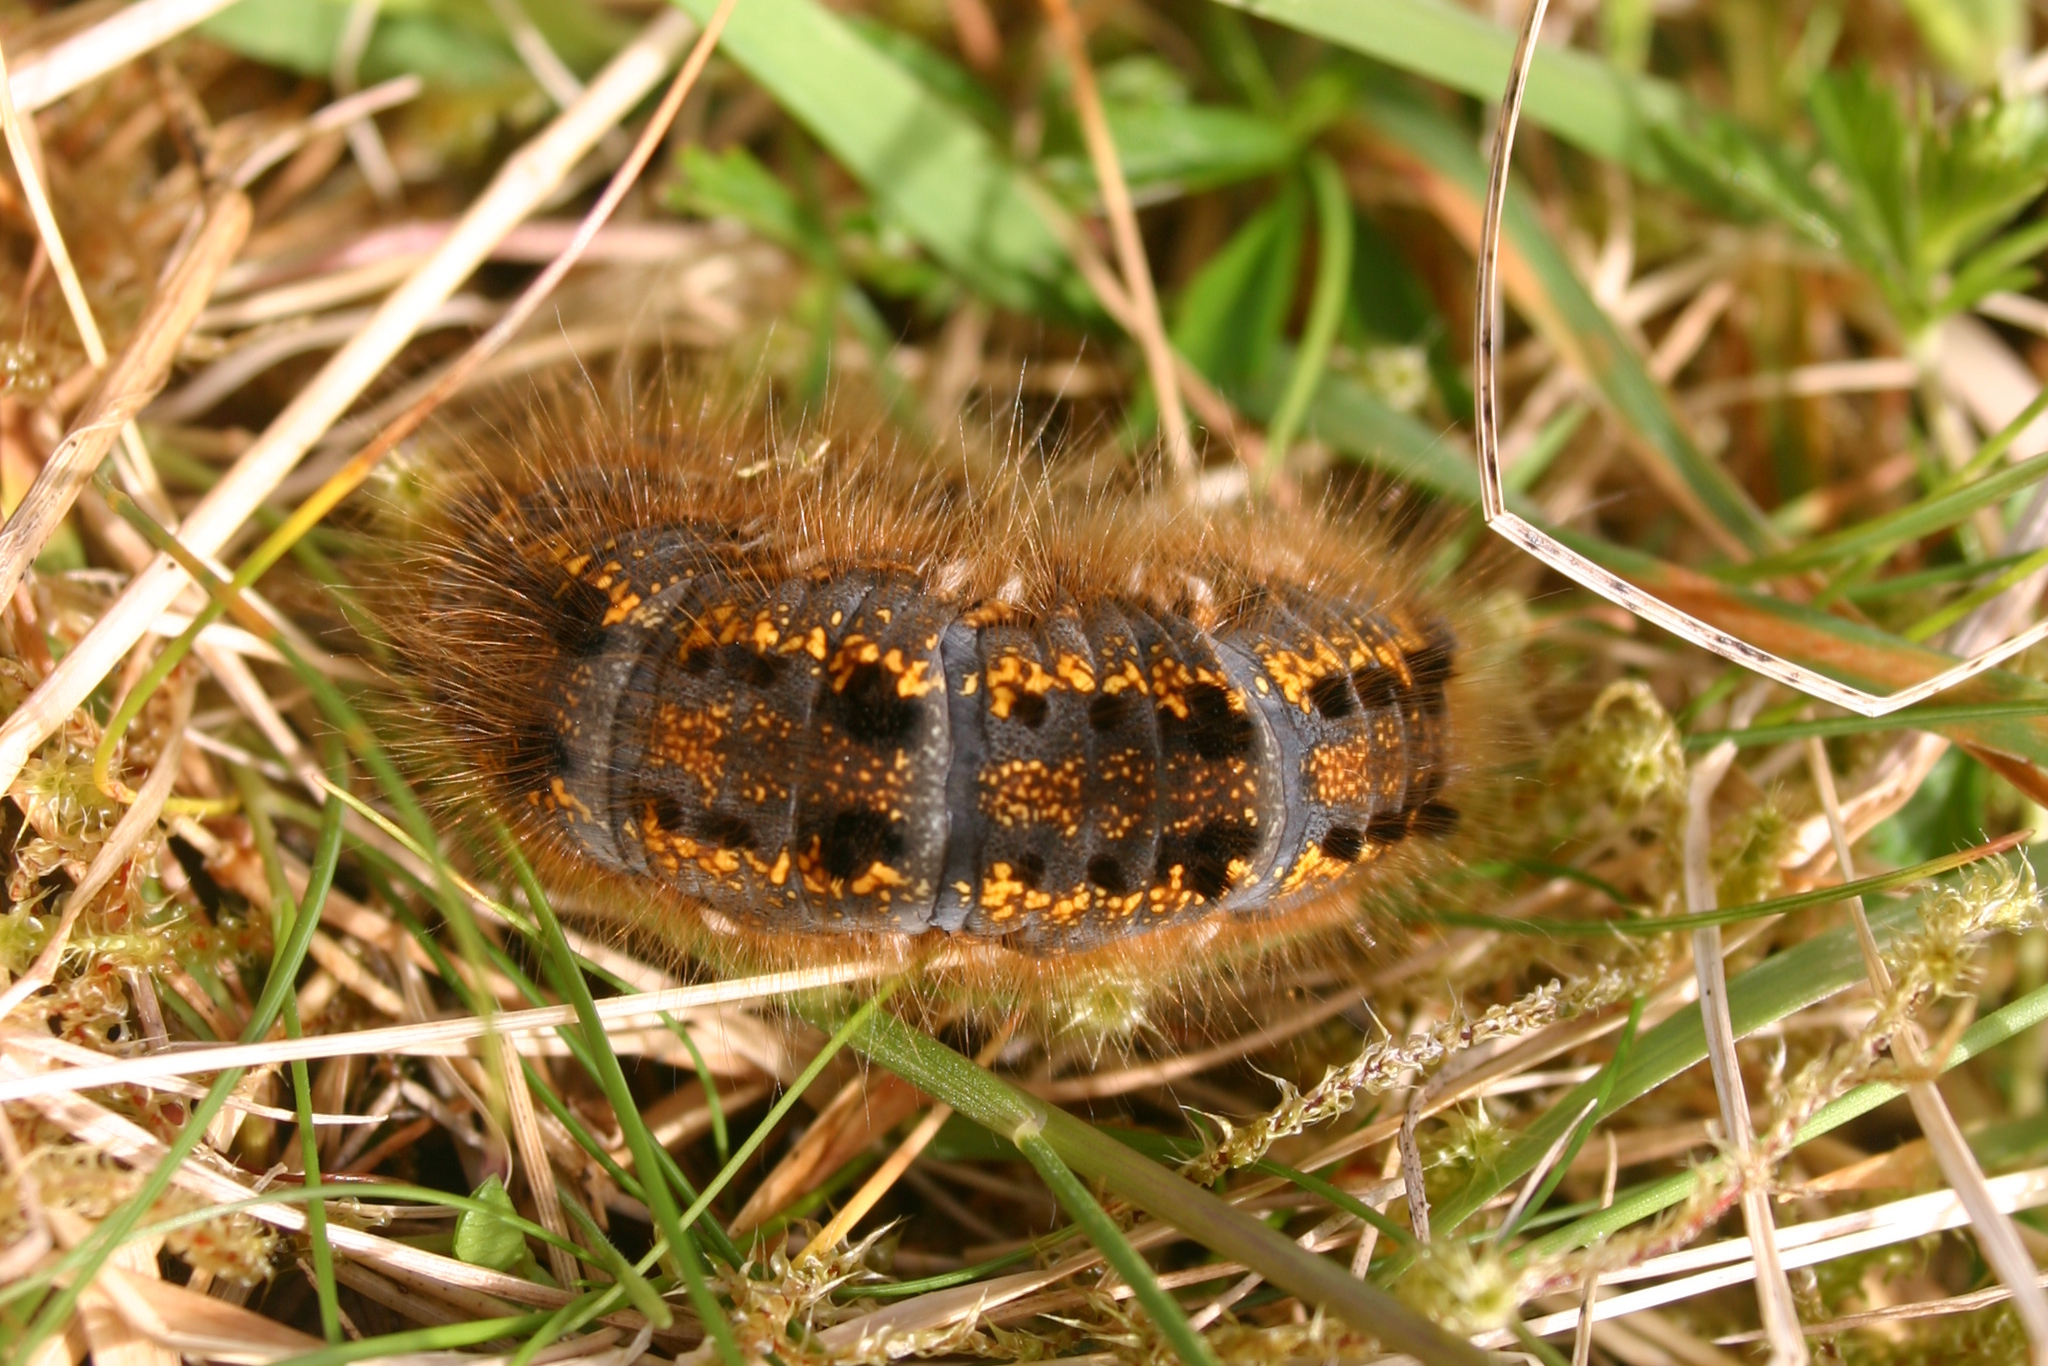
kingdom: Animalia
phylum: Arthropoda
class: Insecta
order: Lepidoptera
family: Lasiocampidae
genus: Euthrix
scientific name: Euthrix potatoria
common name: Drinker
